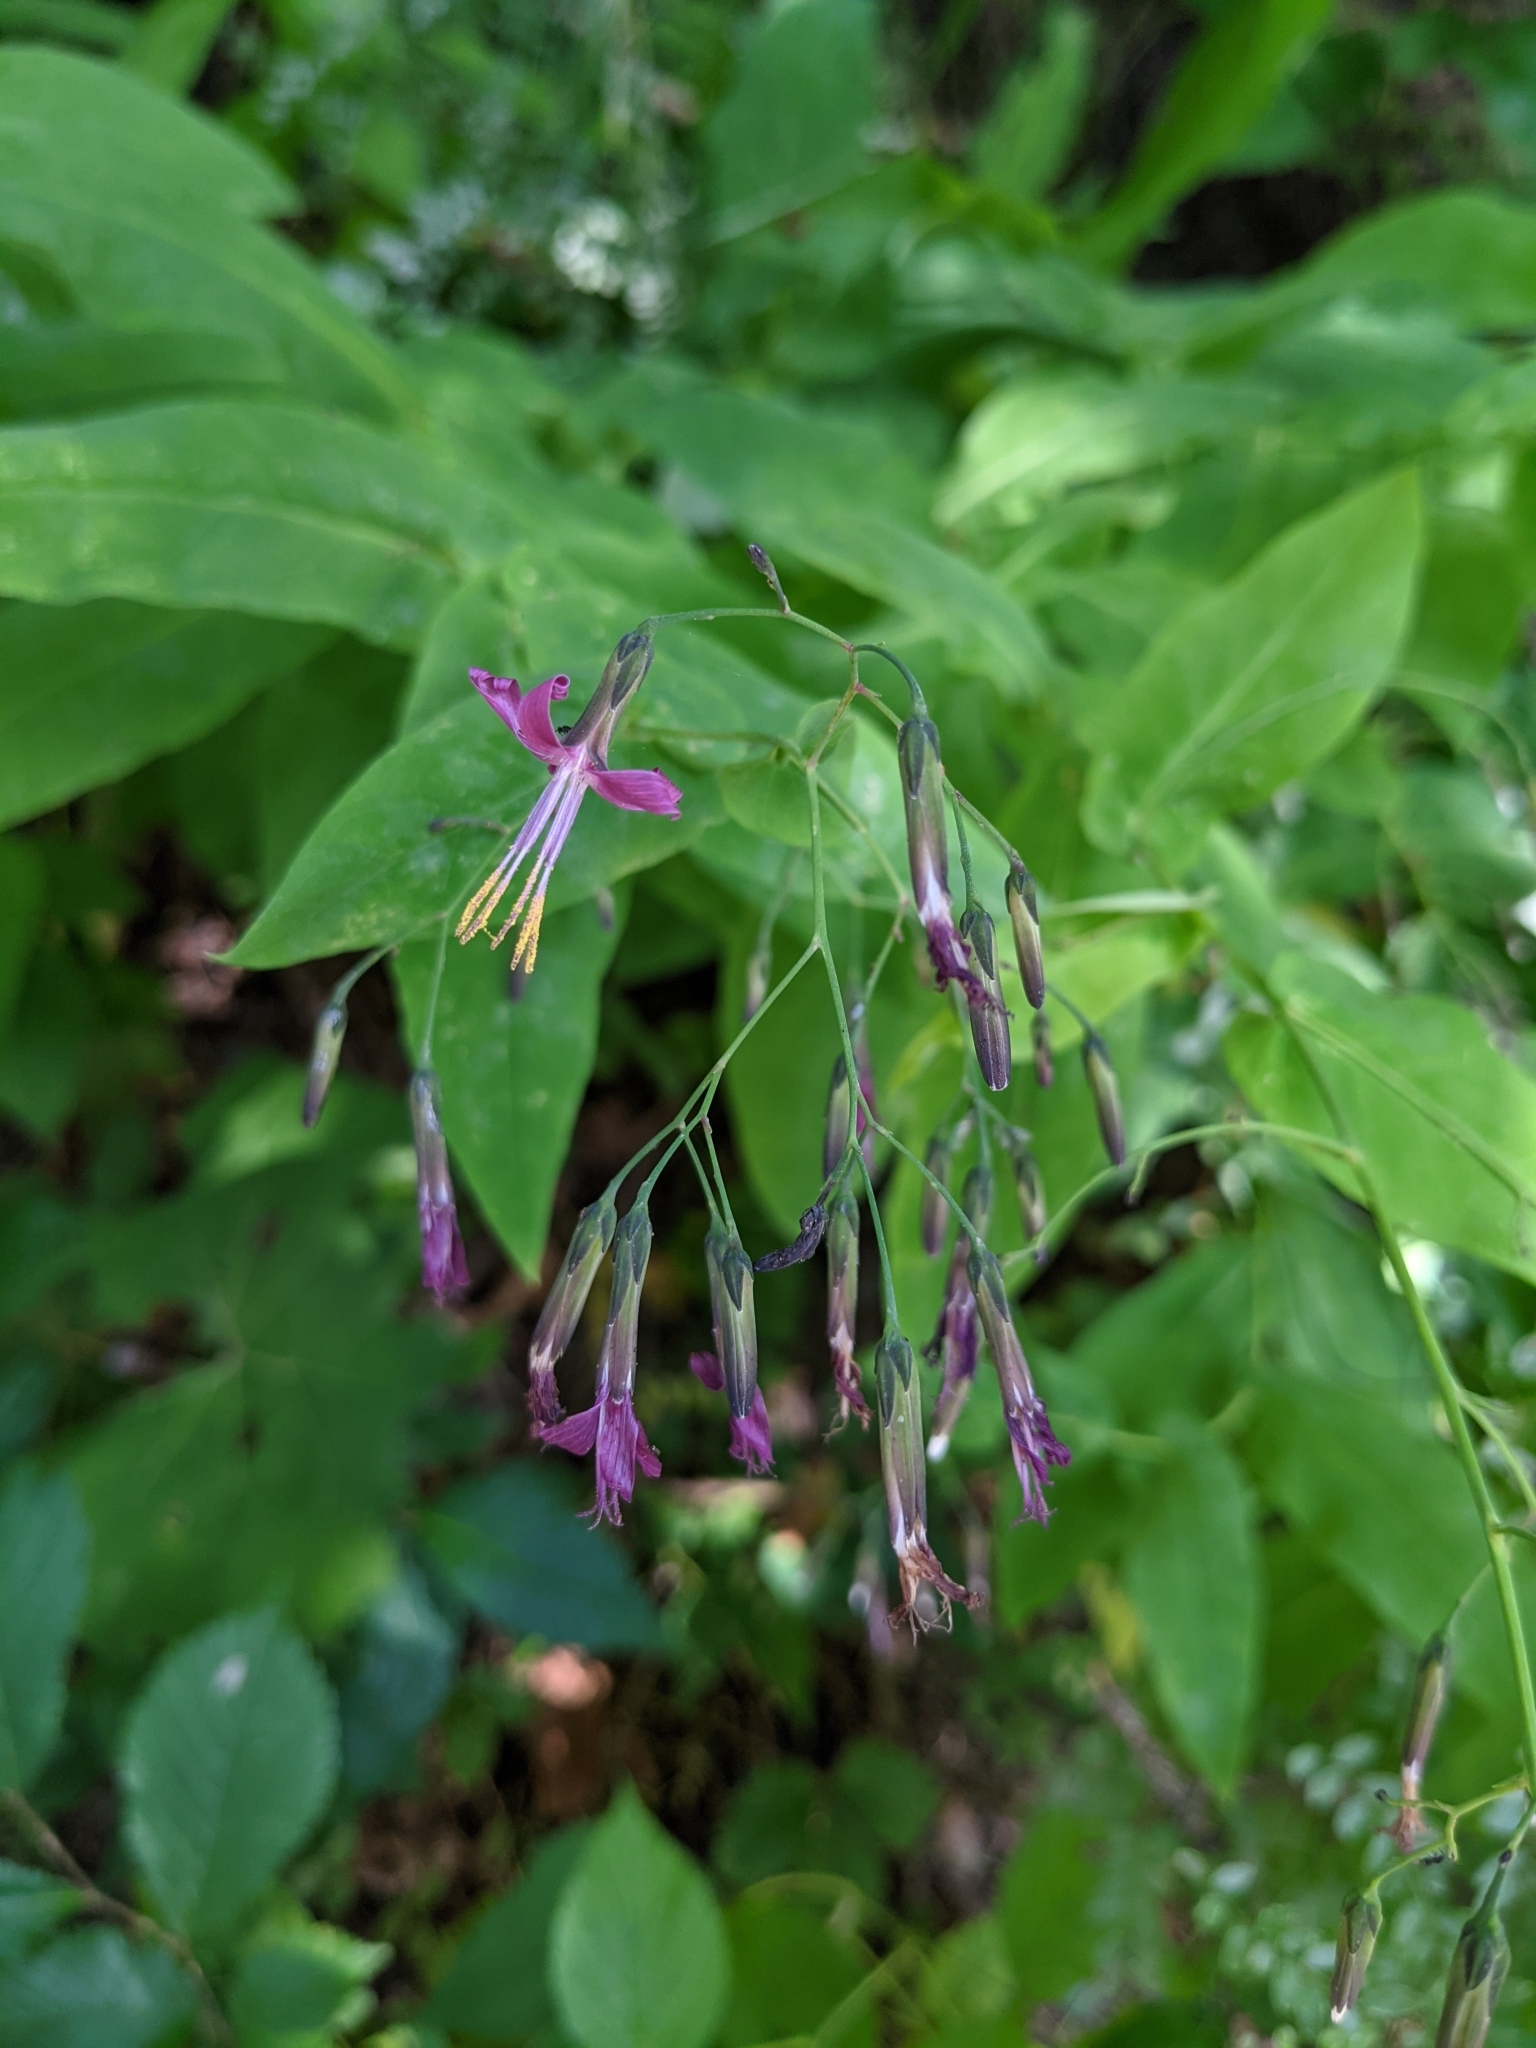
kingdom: Plantae
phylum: Tracheophyta
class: Magnoliopsida
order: Asterales
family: Asteraceae
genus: Prenanthes
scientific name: Prenanthes purpurea
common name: Purple lettuce
